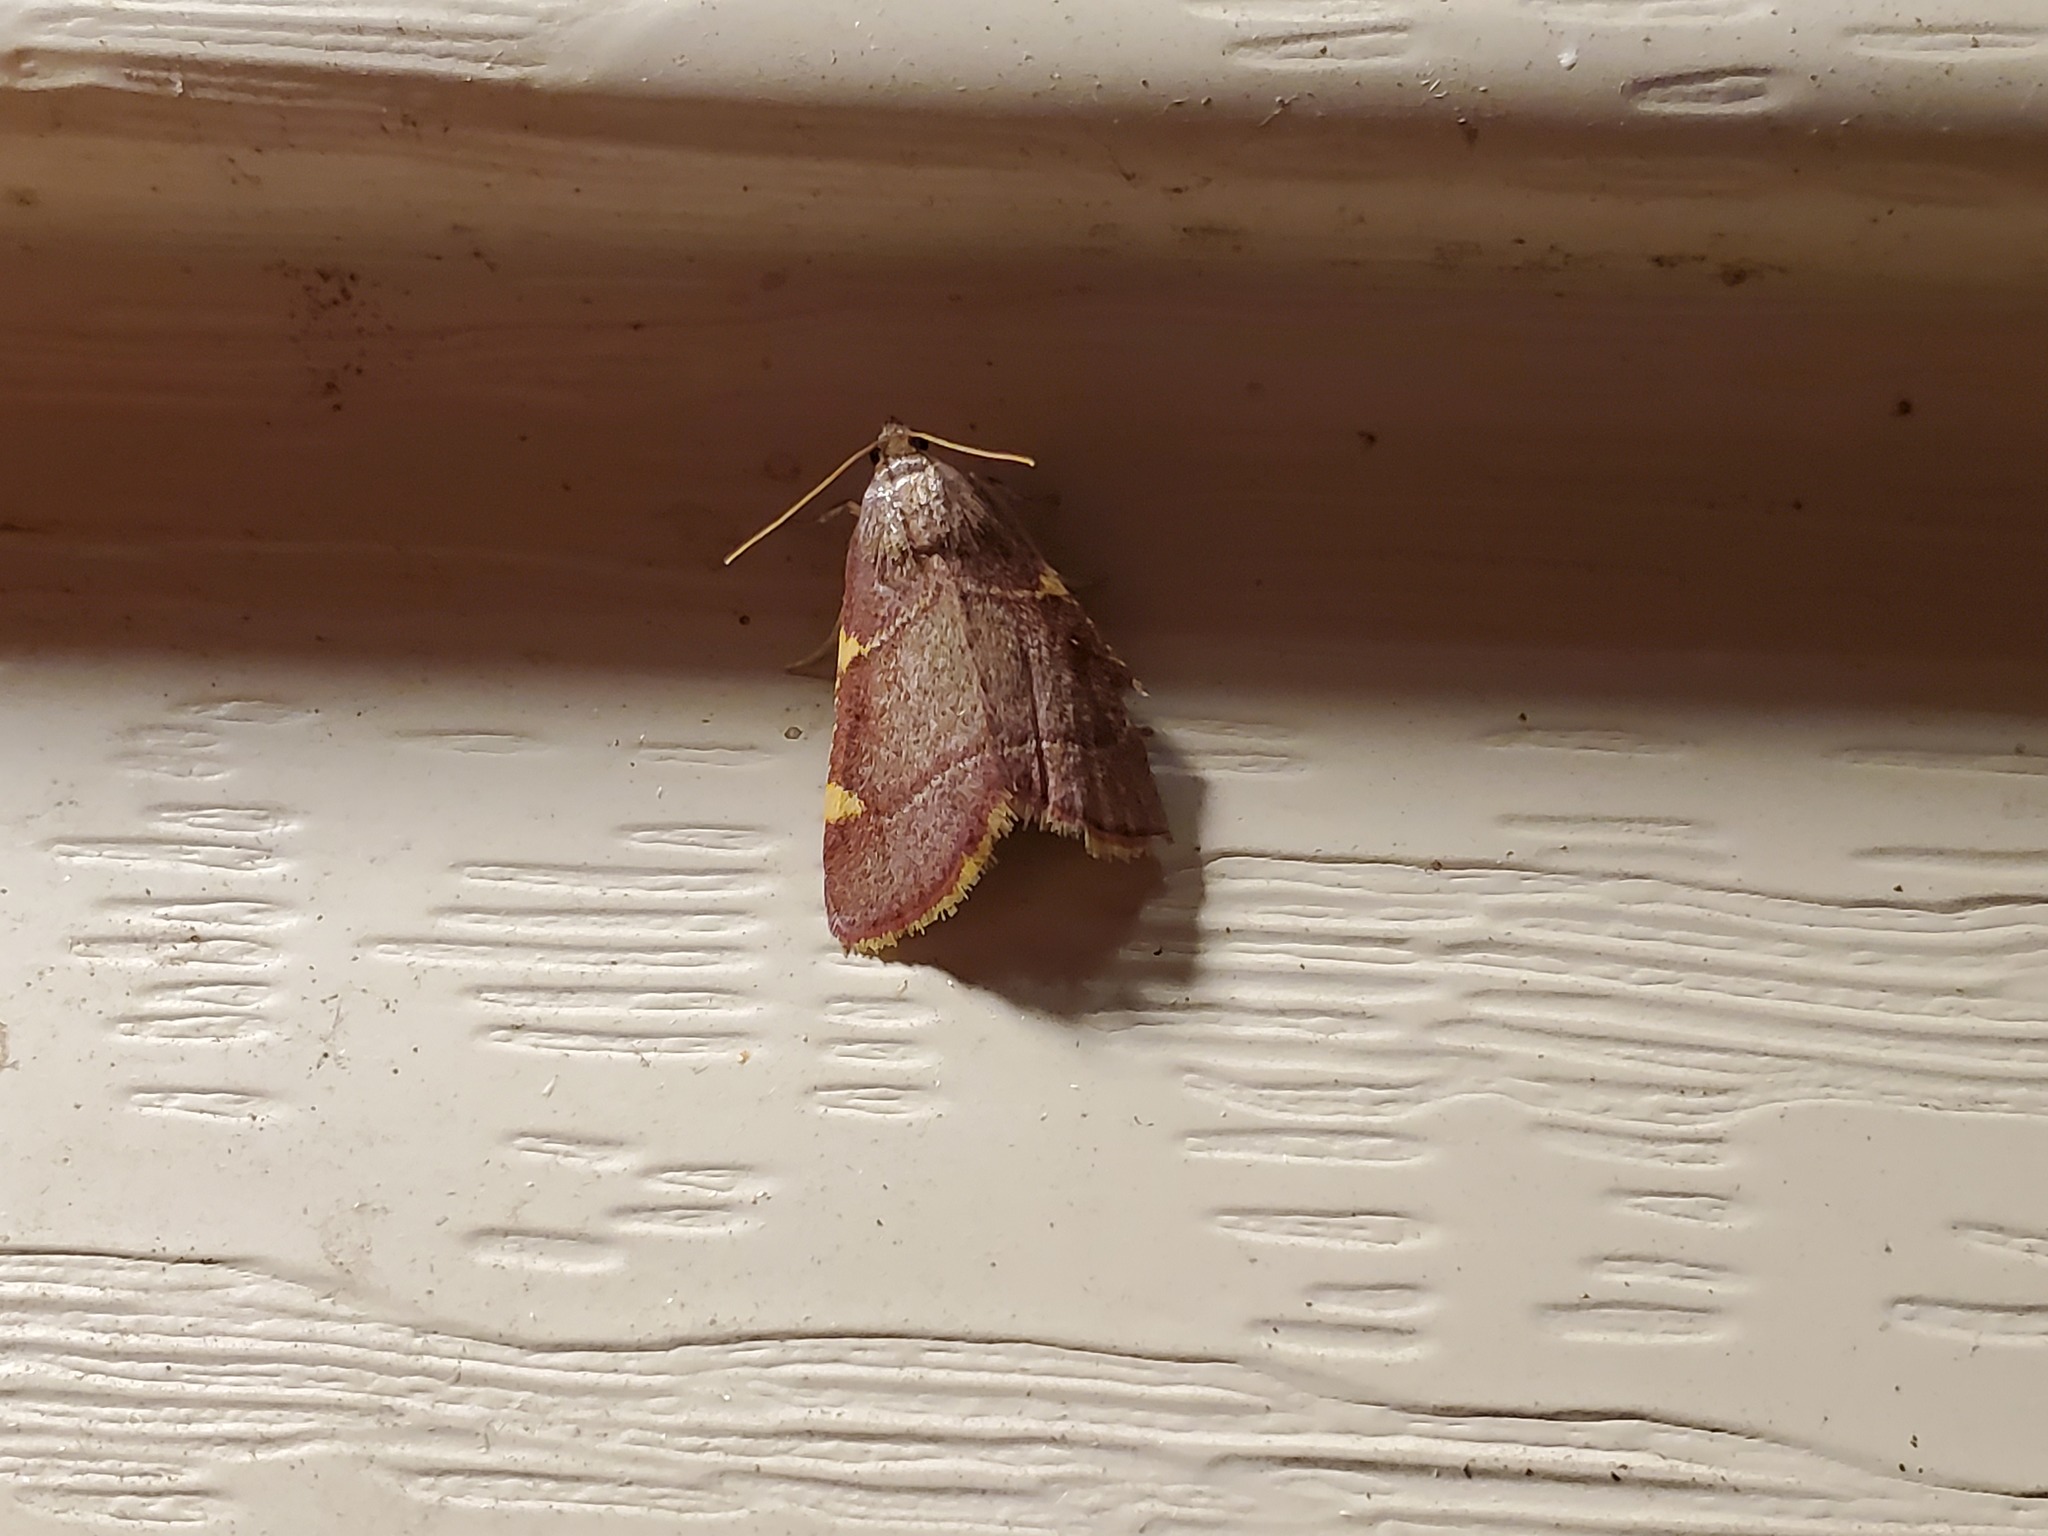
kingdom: Animalia
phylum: Arthropoda
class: Insecta
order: Lepidoptera
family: Pyralidae
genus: Hypsopygia
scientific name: Hypsopygia olinalis
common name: Yellow-fringed dolichomia moth
